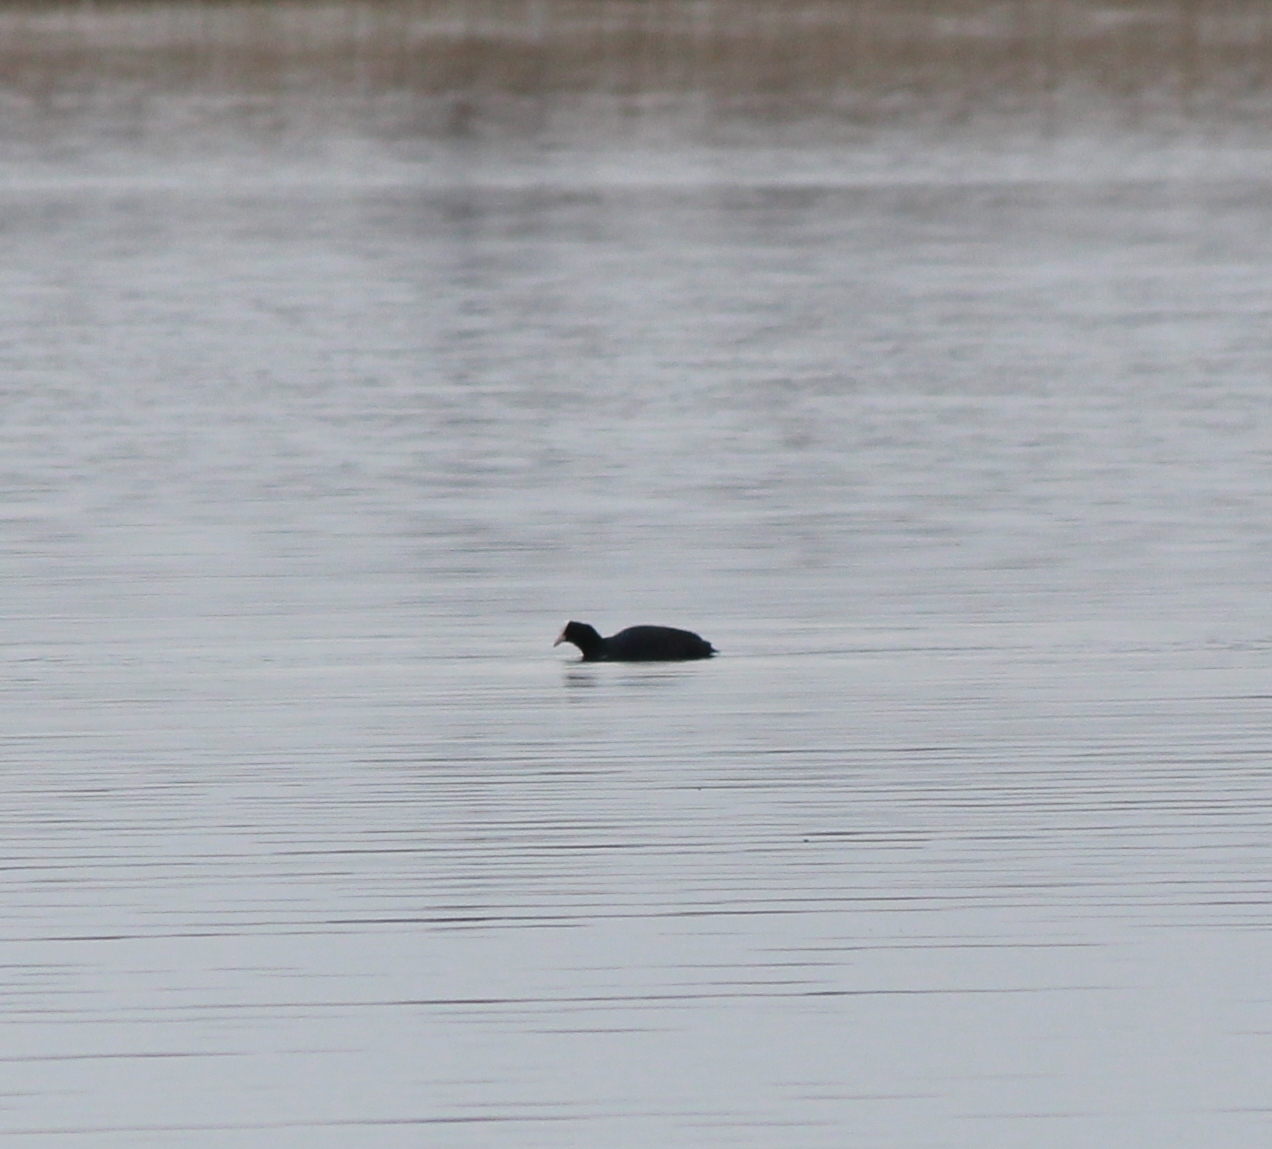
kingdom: Animalia
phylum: Chordata
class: Aves
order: Gruiformes
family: Rallidae
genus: Fulica
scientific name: Fulica atra
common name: Eurasian coot
